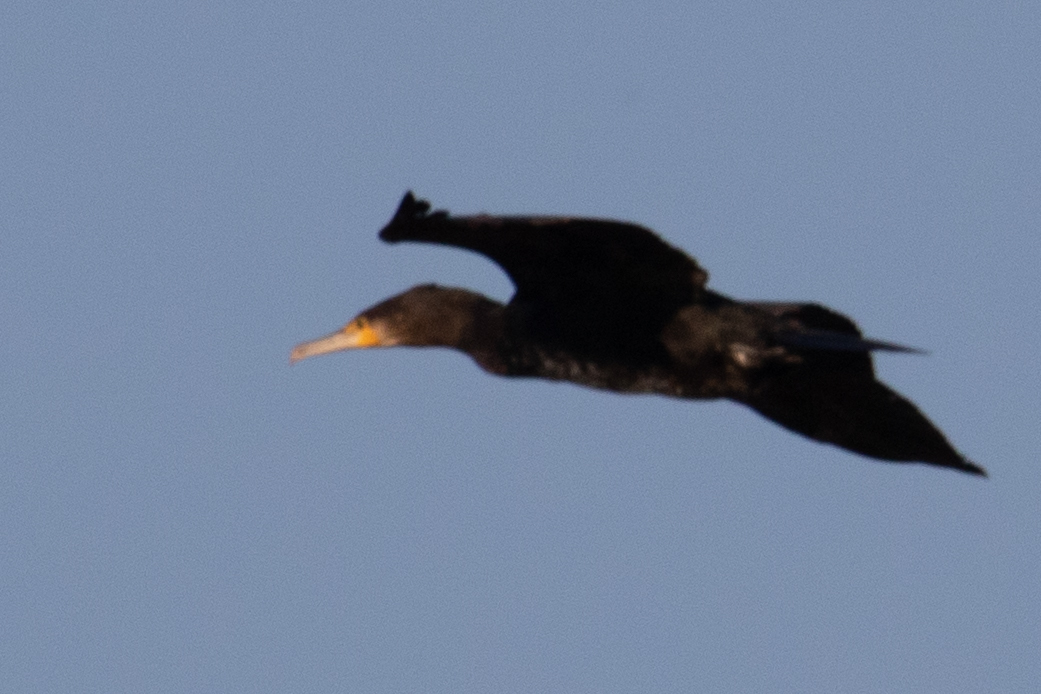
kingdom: Animalia
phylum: Chordata
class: Aves
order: Suliformes
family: Phalacrocoracidae
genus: Phalacrocorax
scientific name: Phalacrocorax carbo
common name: Great cormorant
